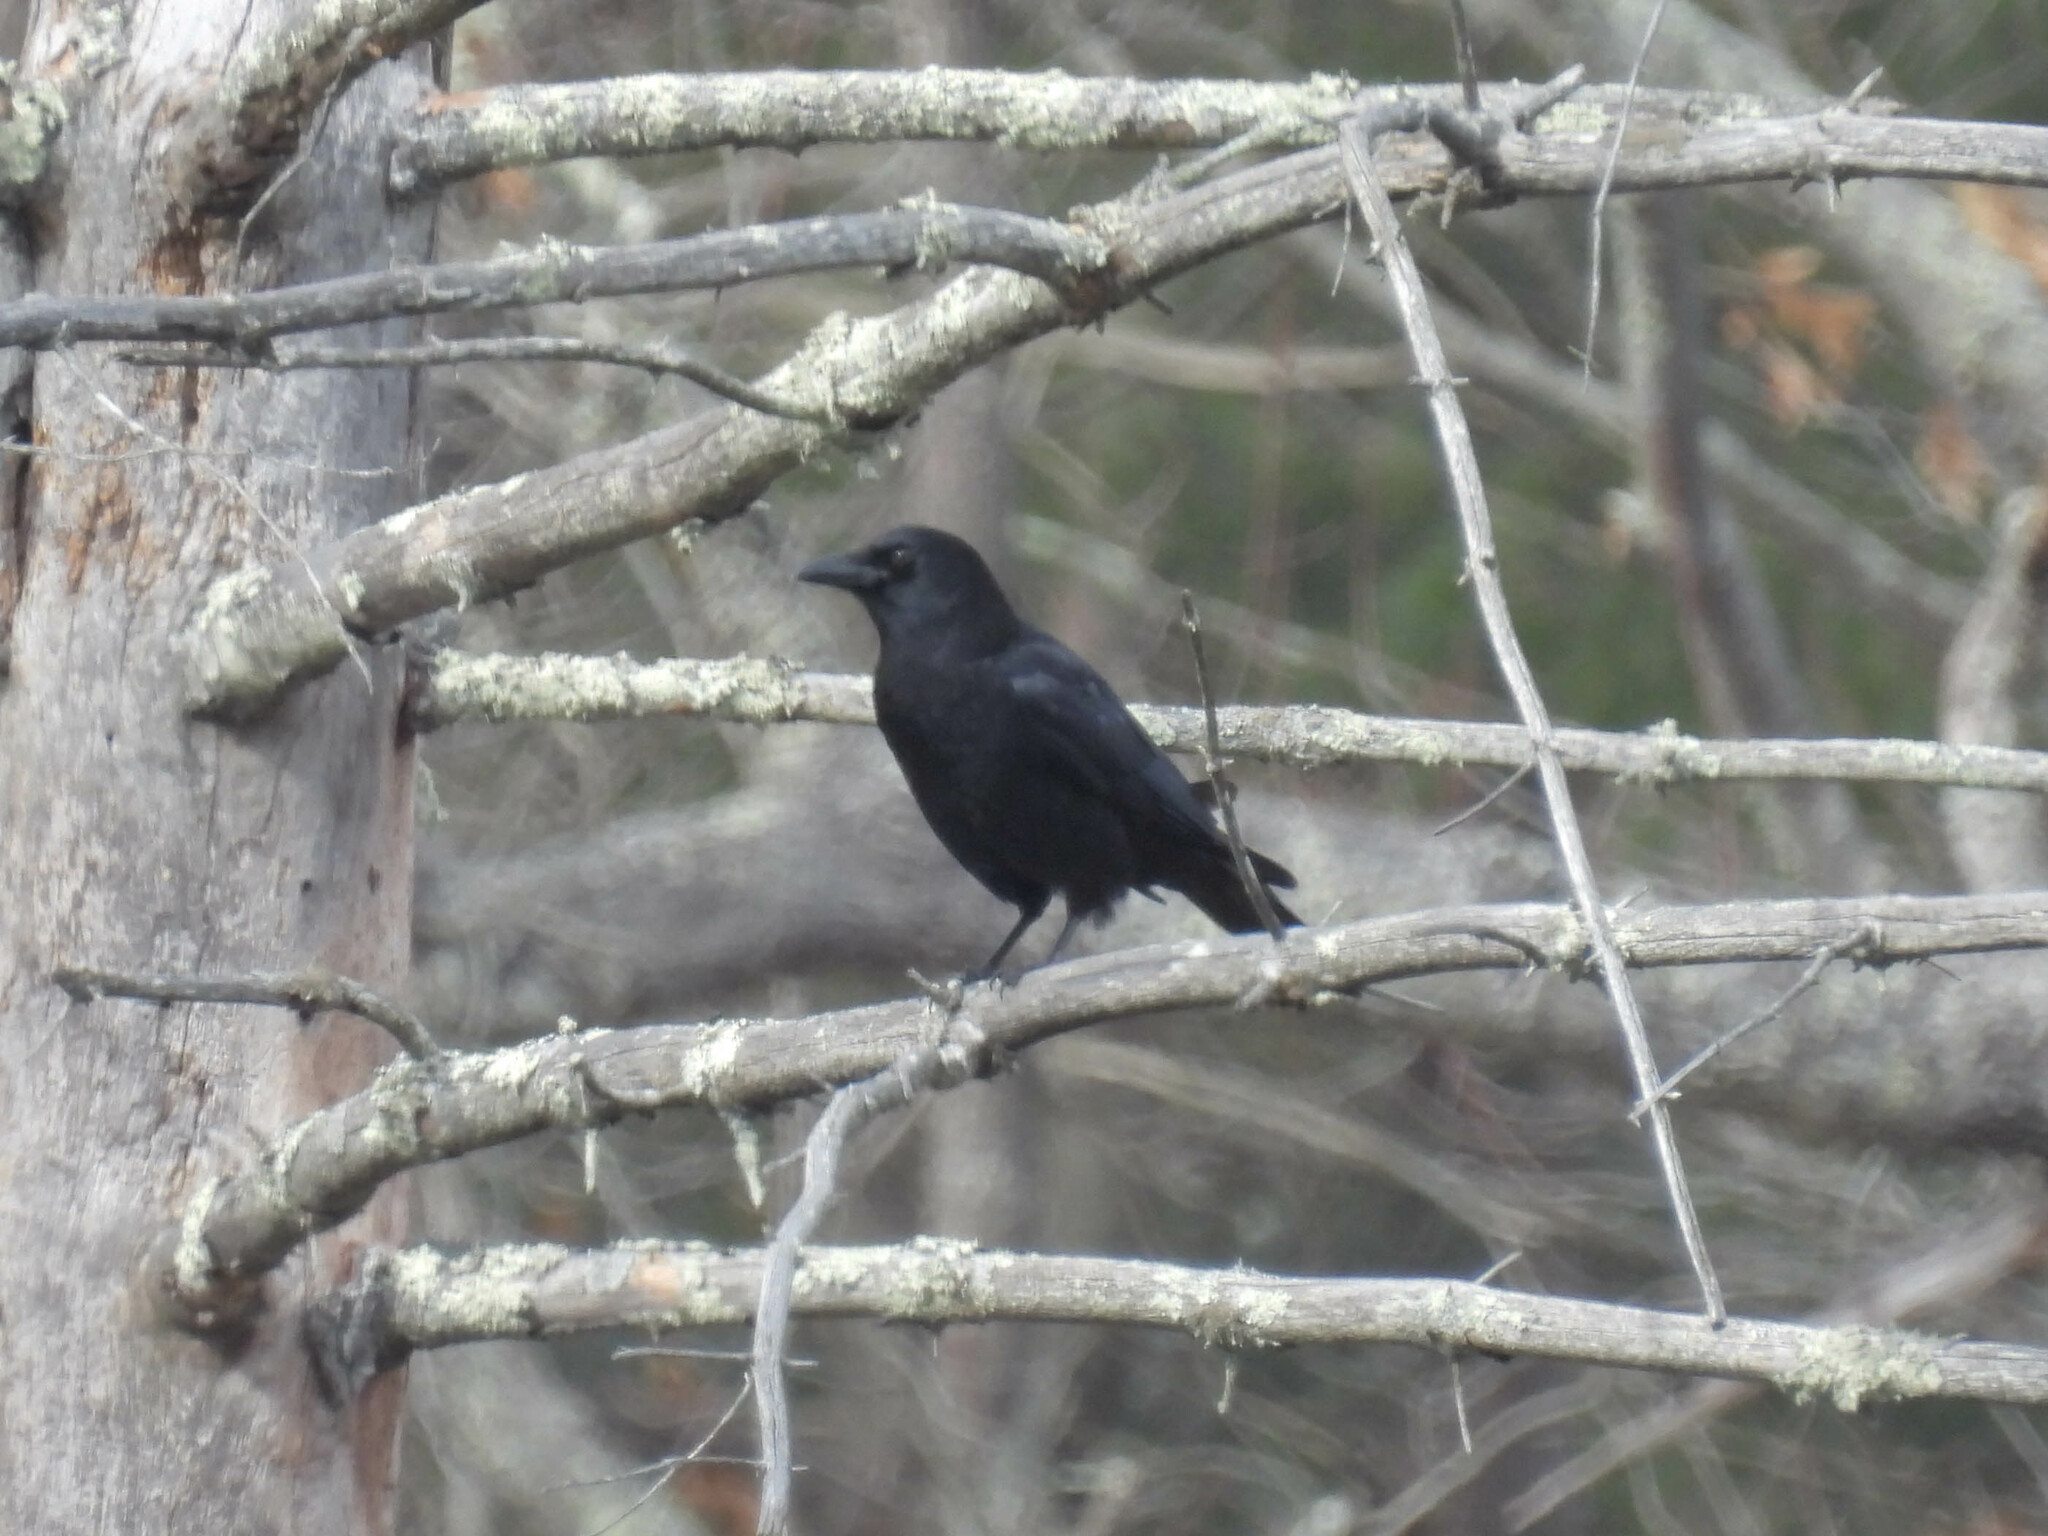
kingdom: Animalia
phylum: Chordata
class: Aves
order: Passeriformes
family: Corvidae
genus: Corvus
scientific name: Corvus brachyrhynchos
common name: American crow
